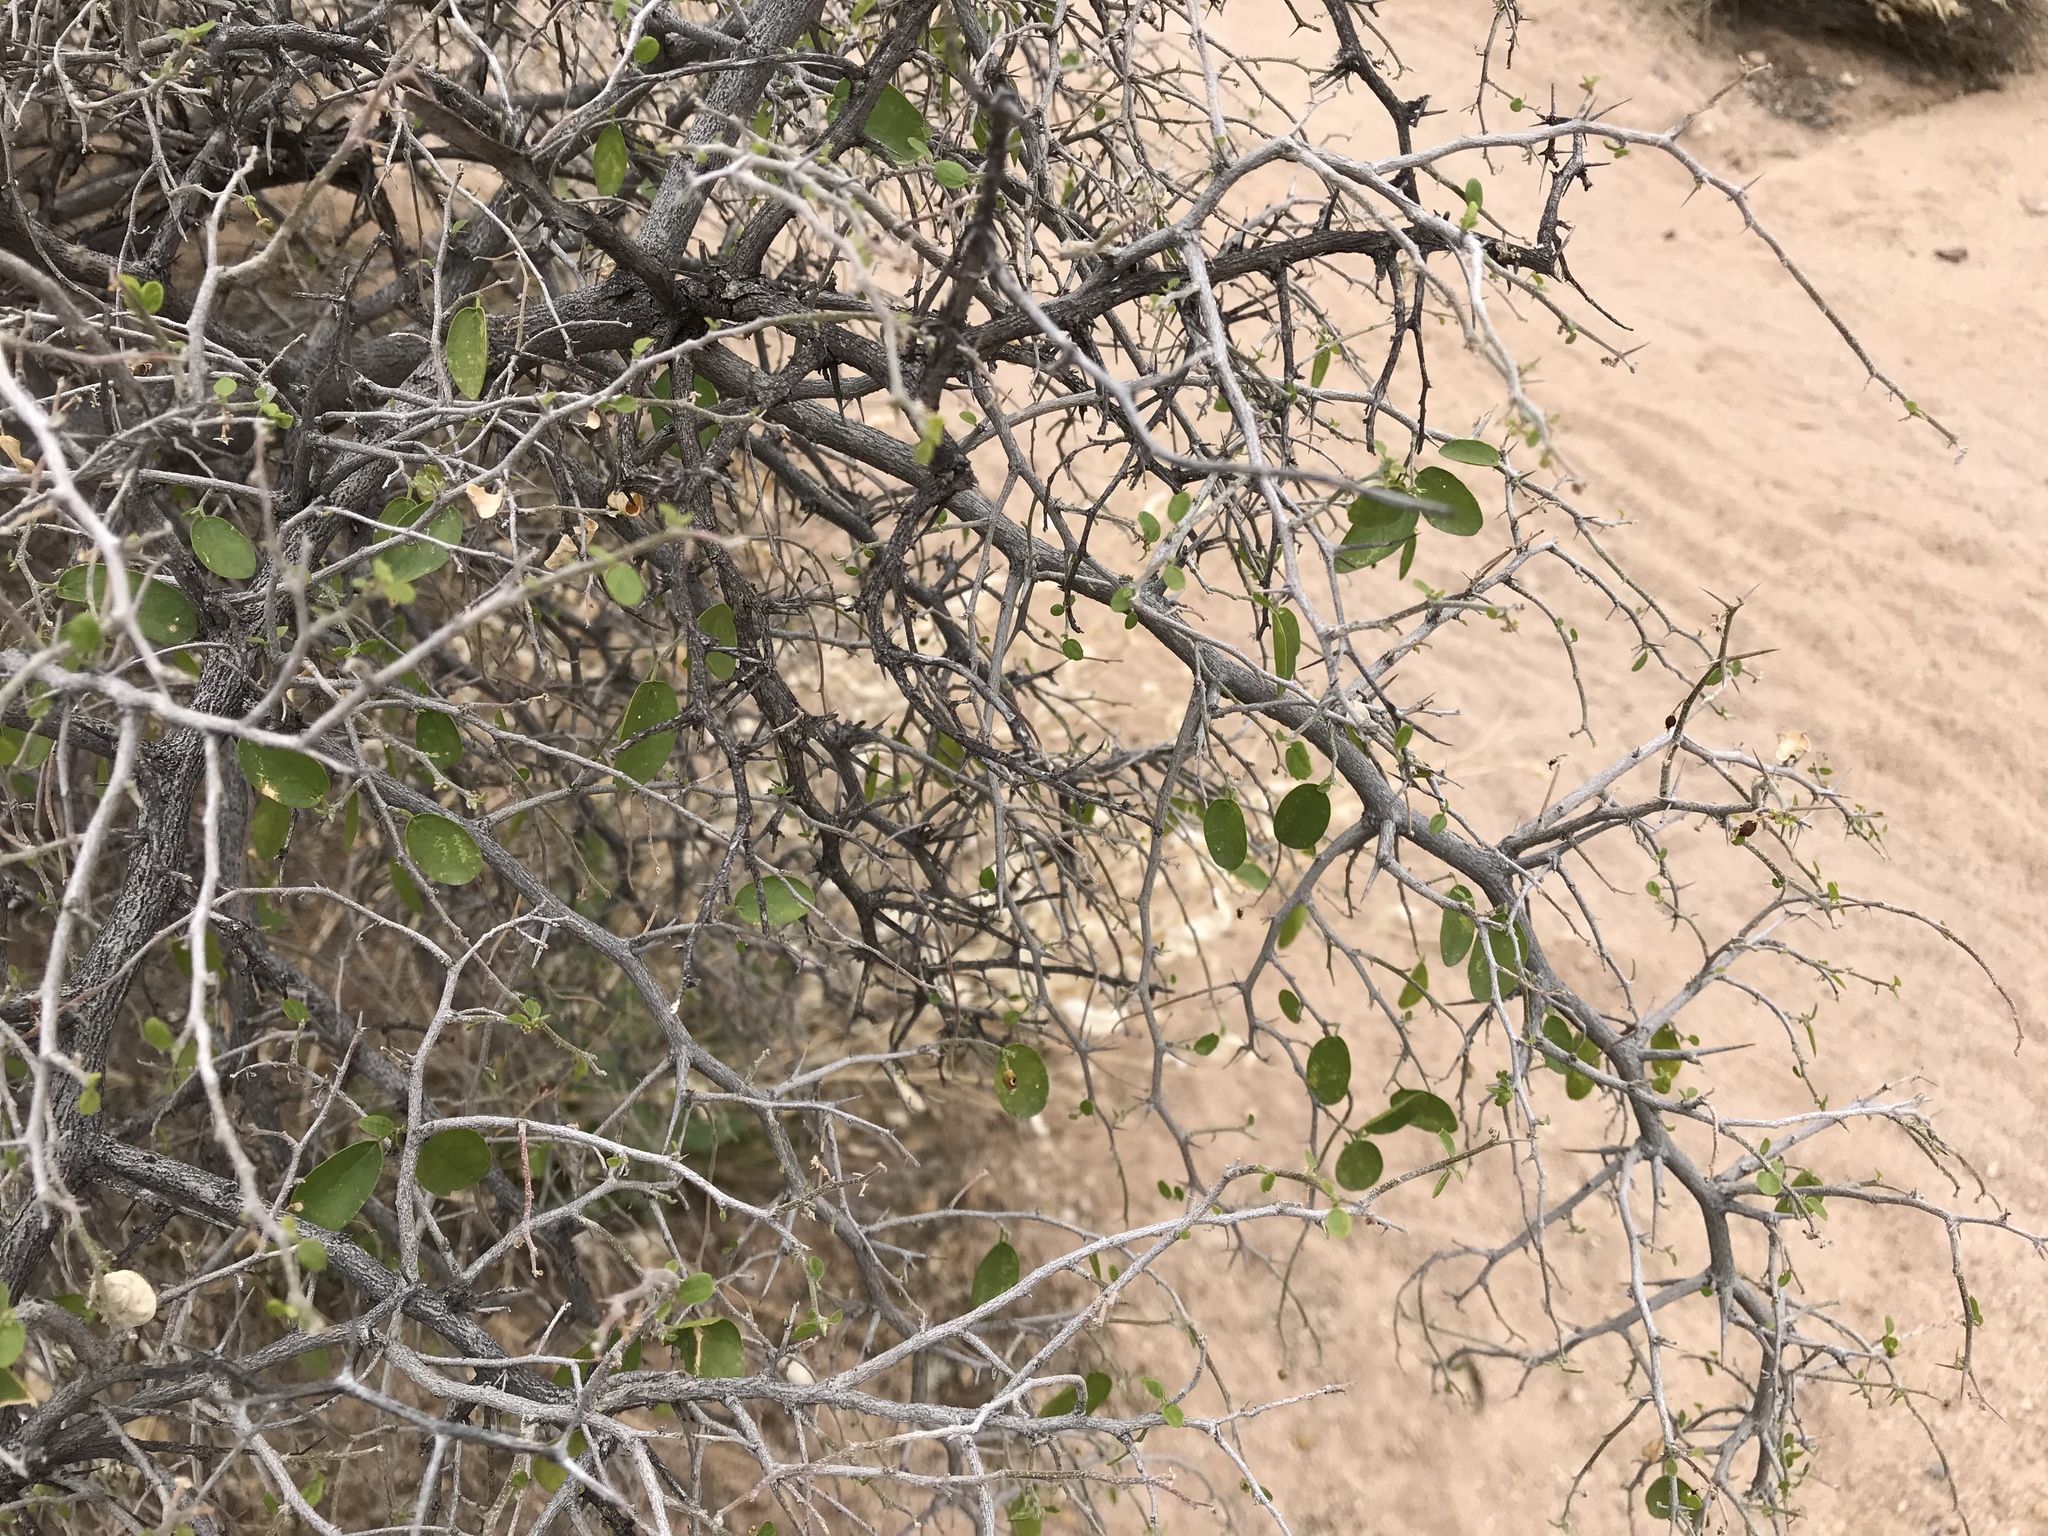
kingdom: Plantae
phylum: Tracheophyta
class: Magnoliopsida
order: Rosales
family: Cannabaceae
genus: Celtis
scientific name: Celtis pallida
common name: Desert hackberry
